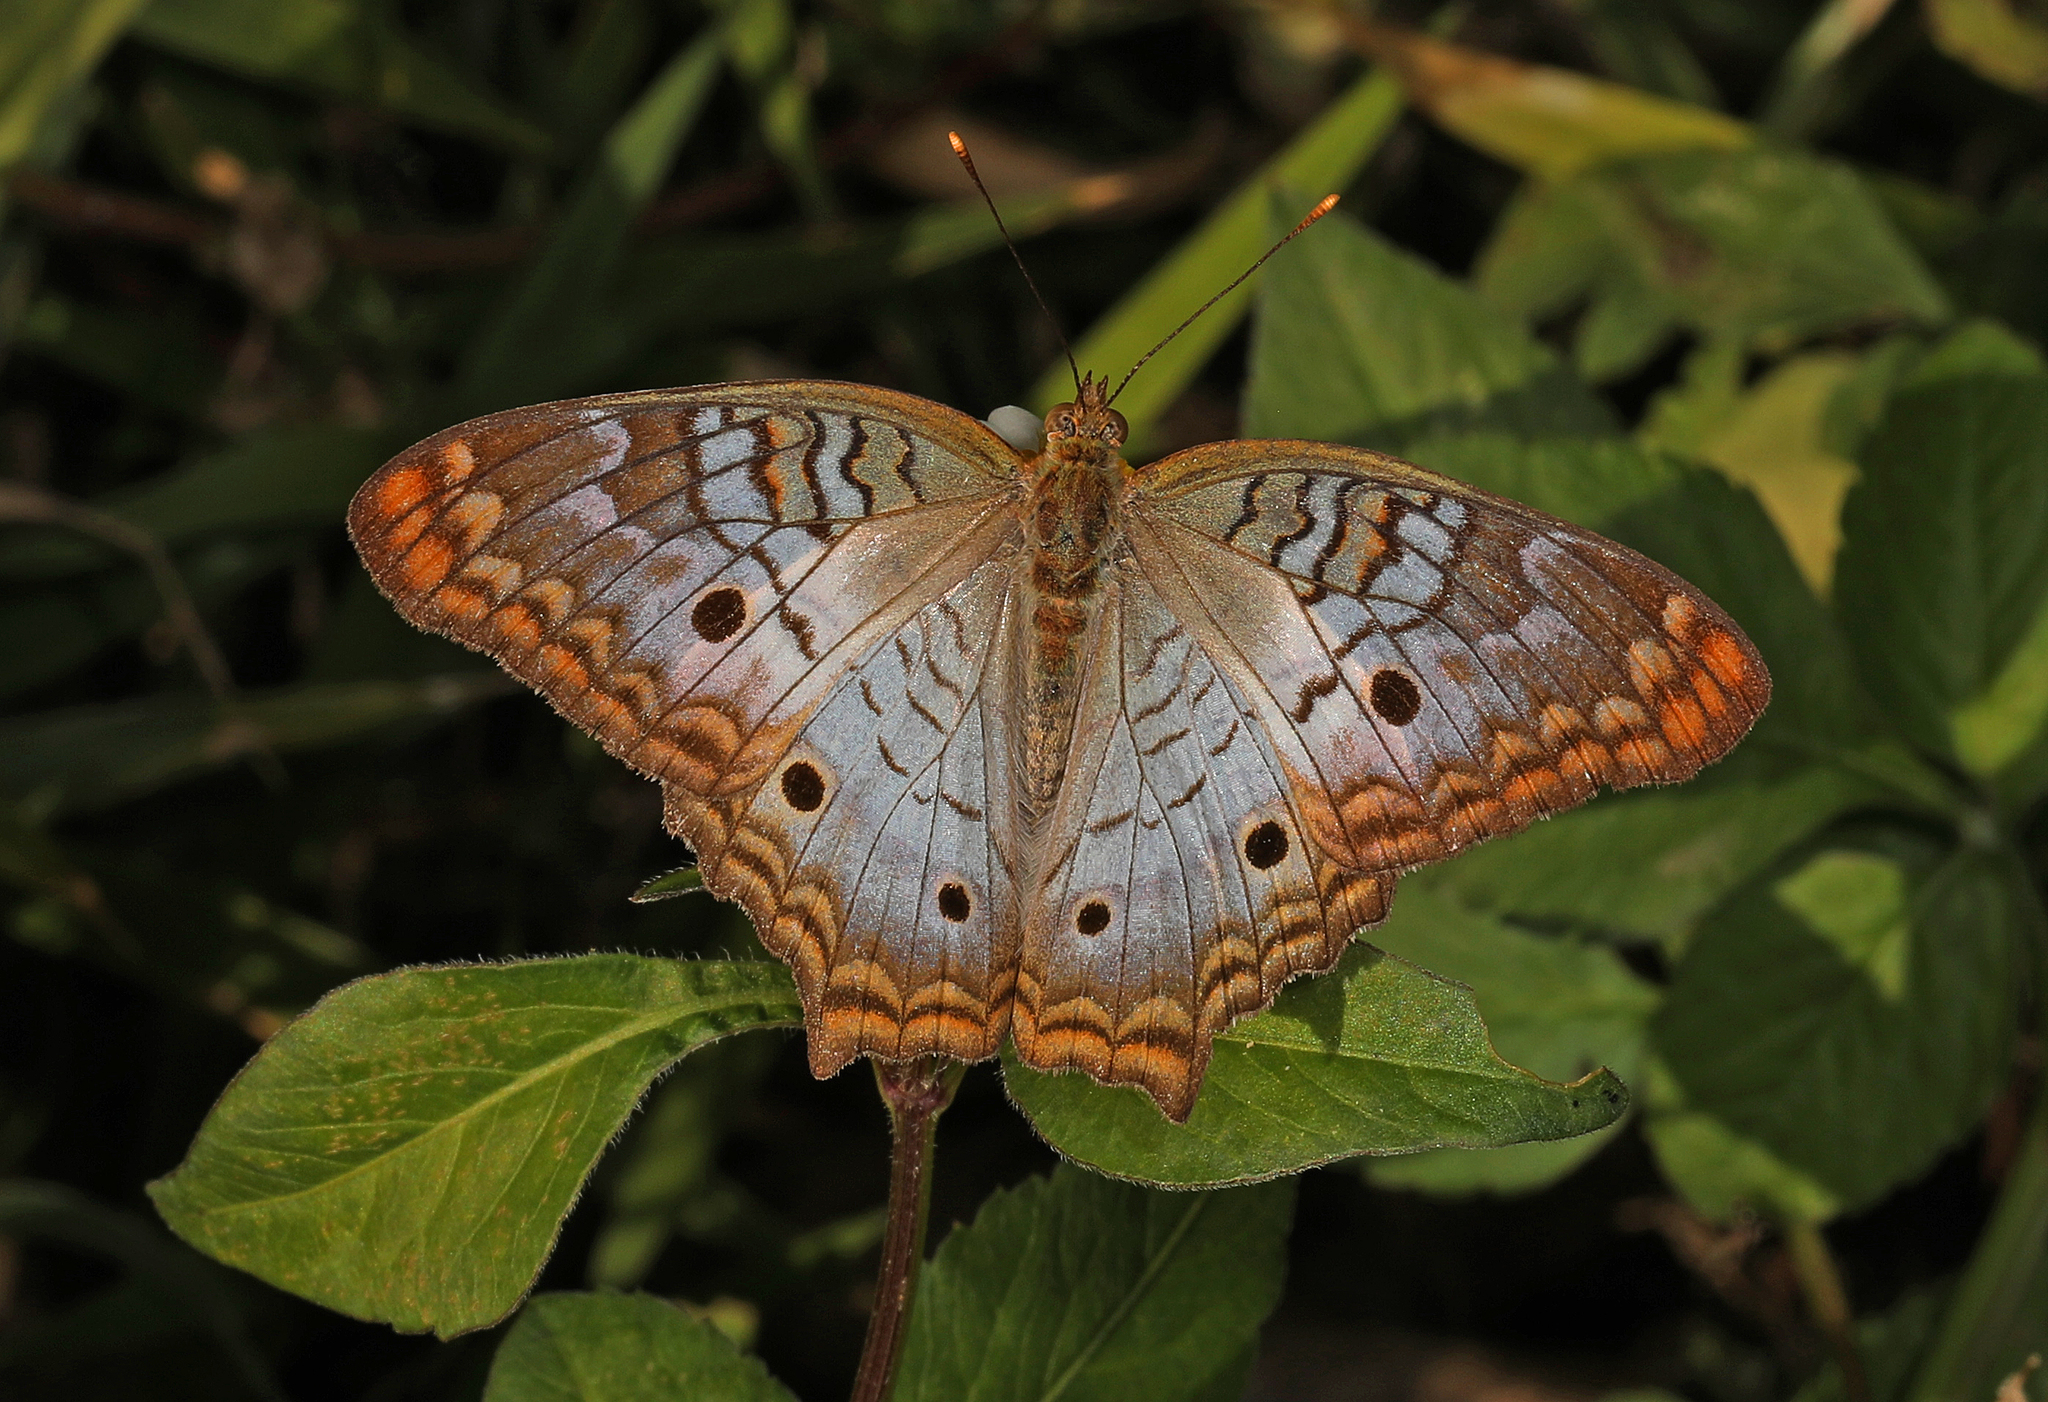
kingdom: Animalia
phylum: Arthropoda
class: Insecta
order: Lepidoptera
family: Nymphalidae
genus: Anartia
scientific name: Anartia jatrophae
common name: White peacock
